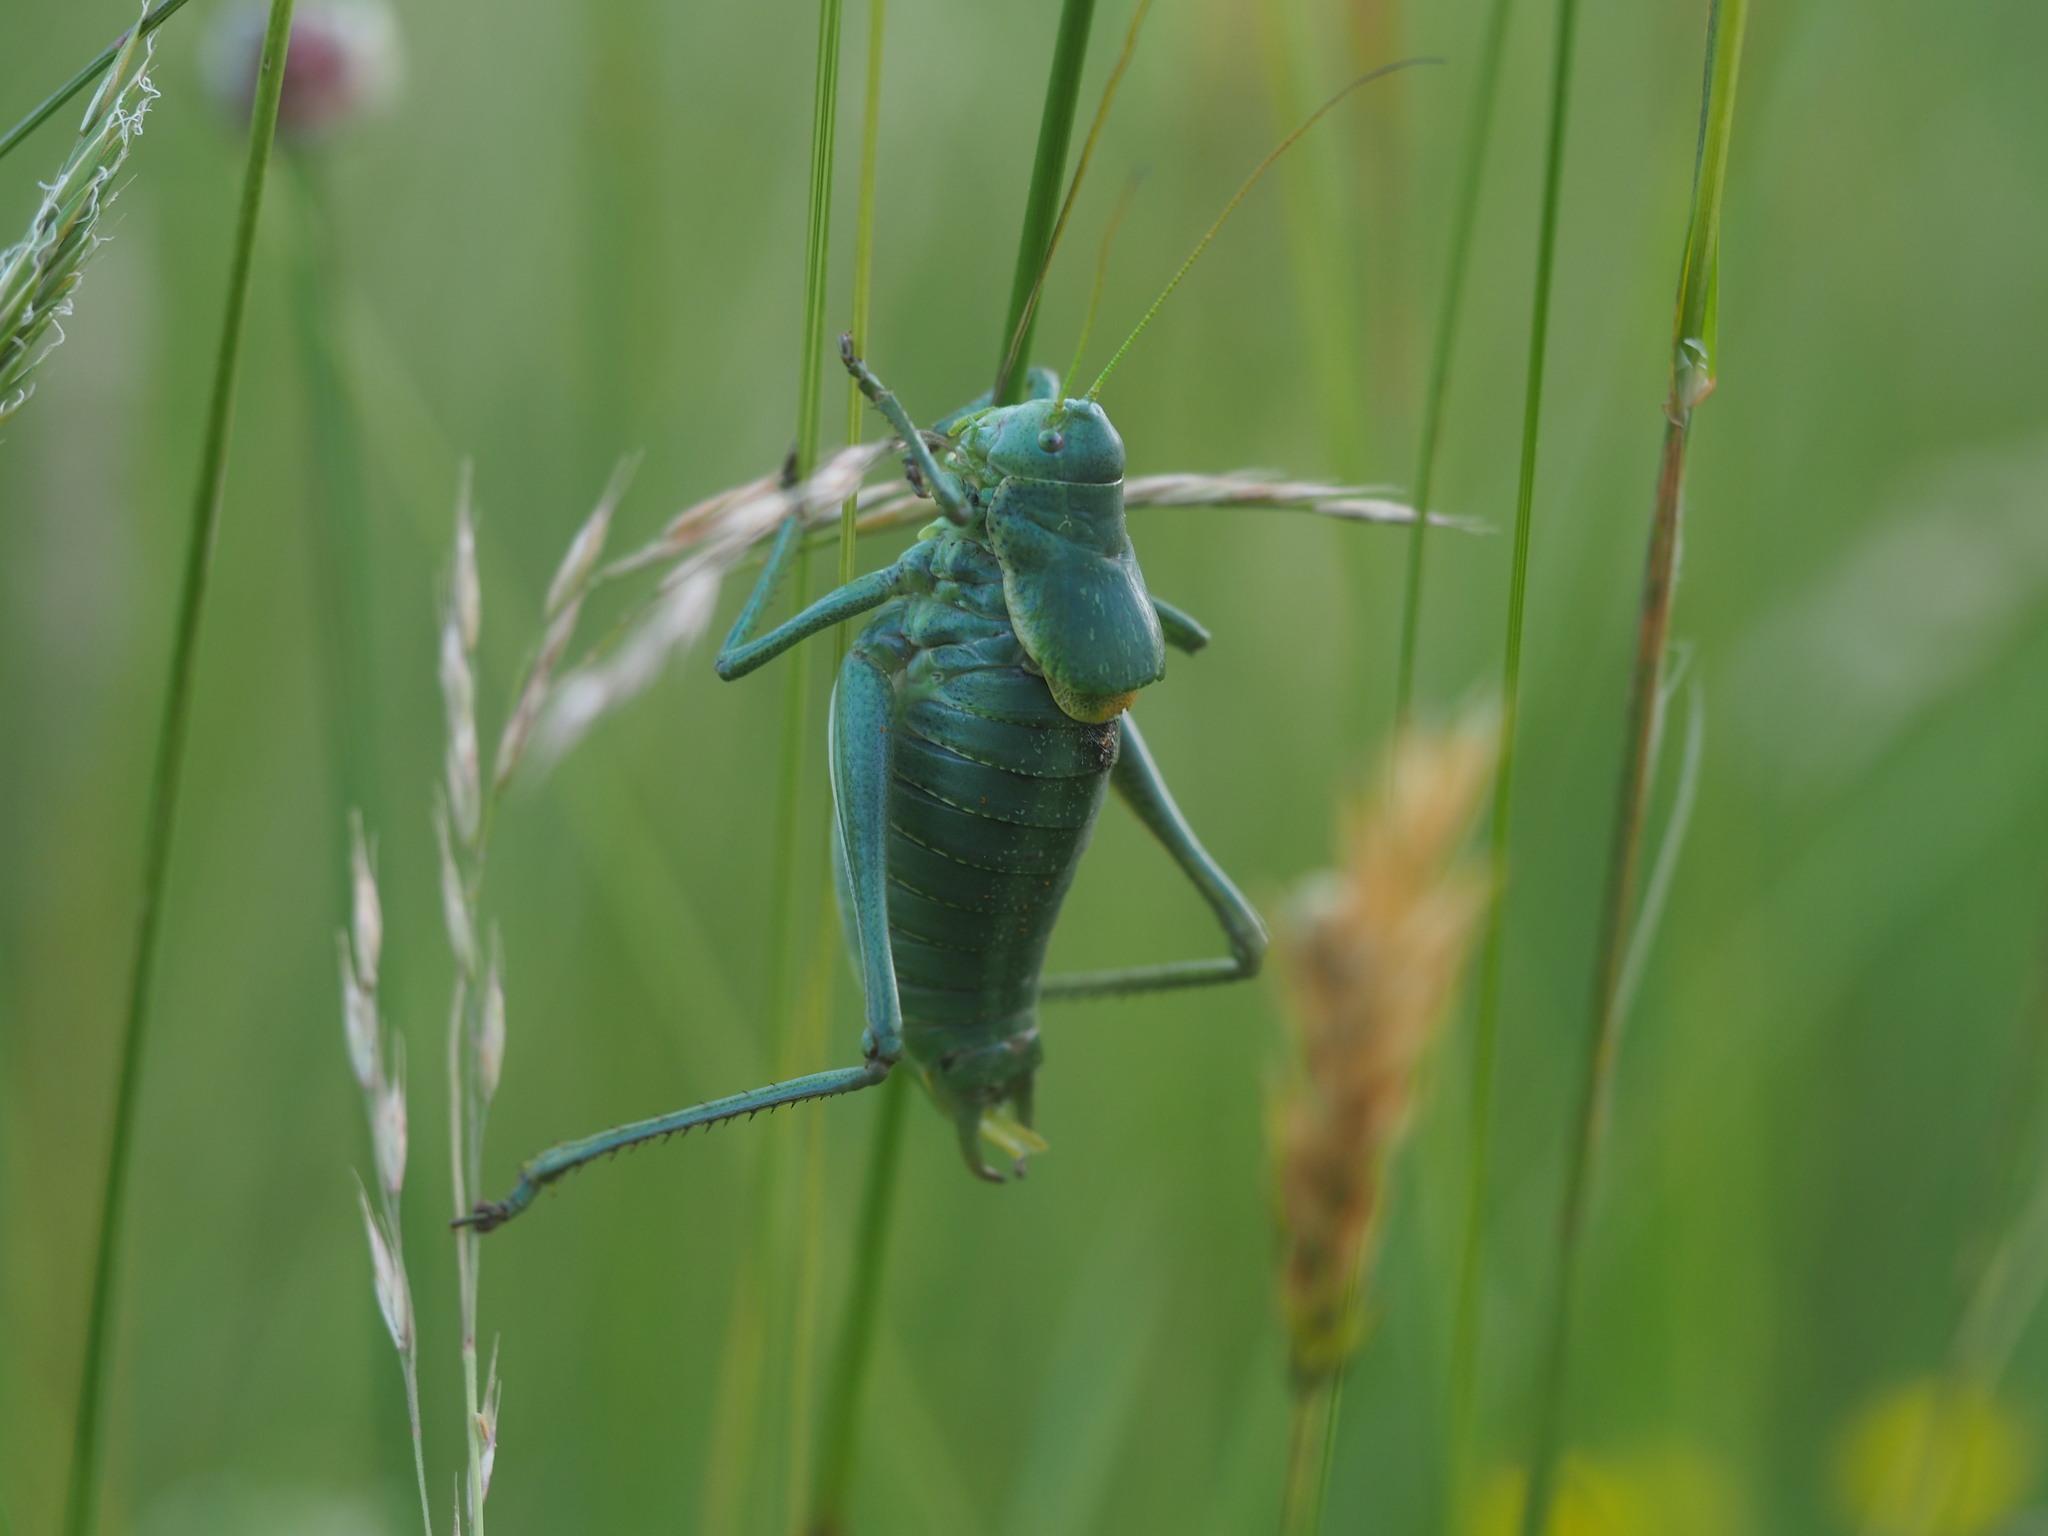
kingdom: Animalia
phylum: Arthropoda
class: Insecta
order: Orthoptera
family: Tettigoniidae
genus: Polysarcus
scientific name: Polysarcus denticauda
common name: Large saw-tailed bush-cricket
